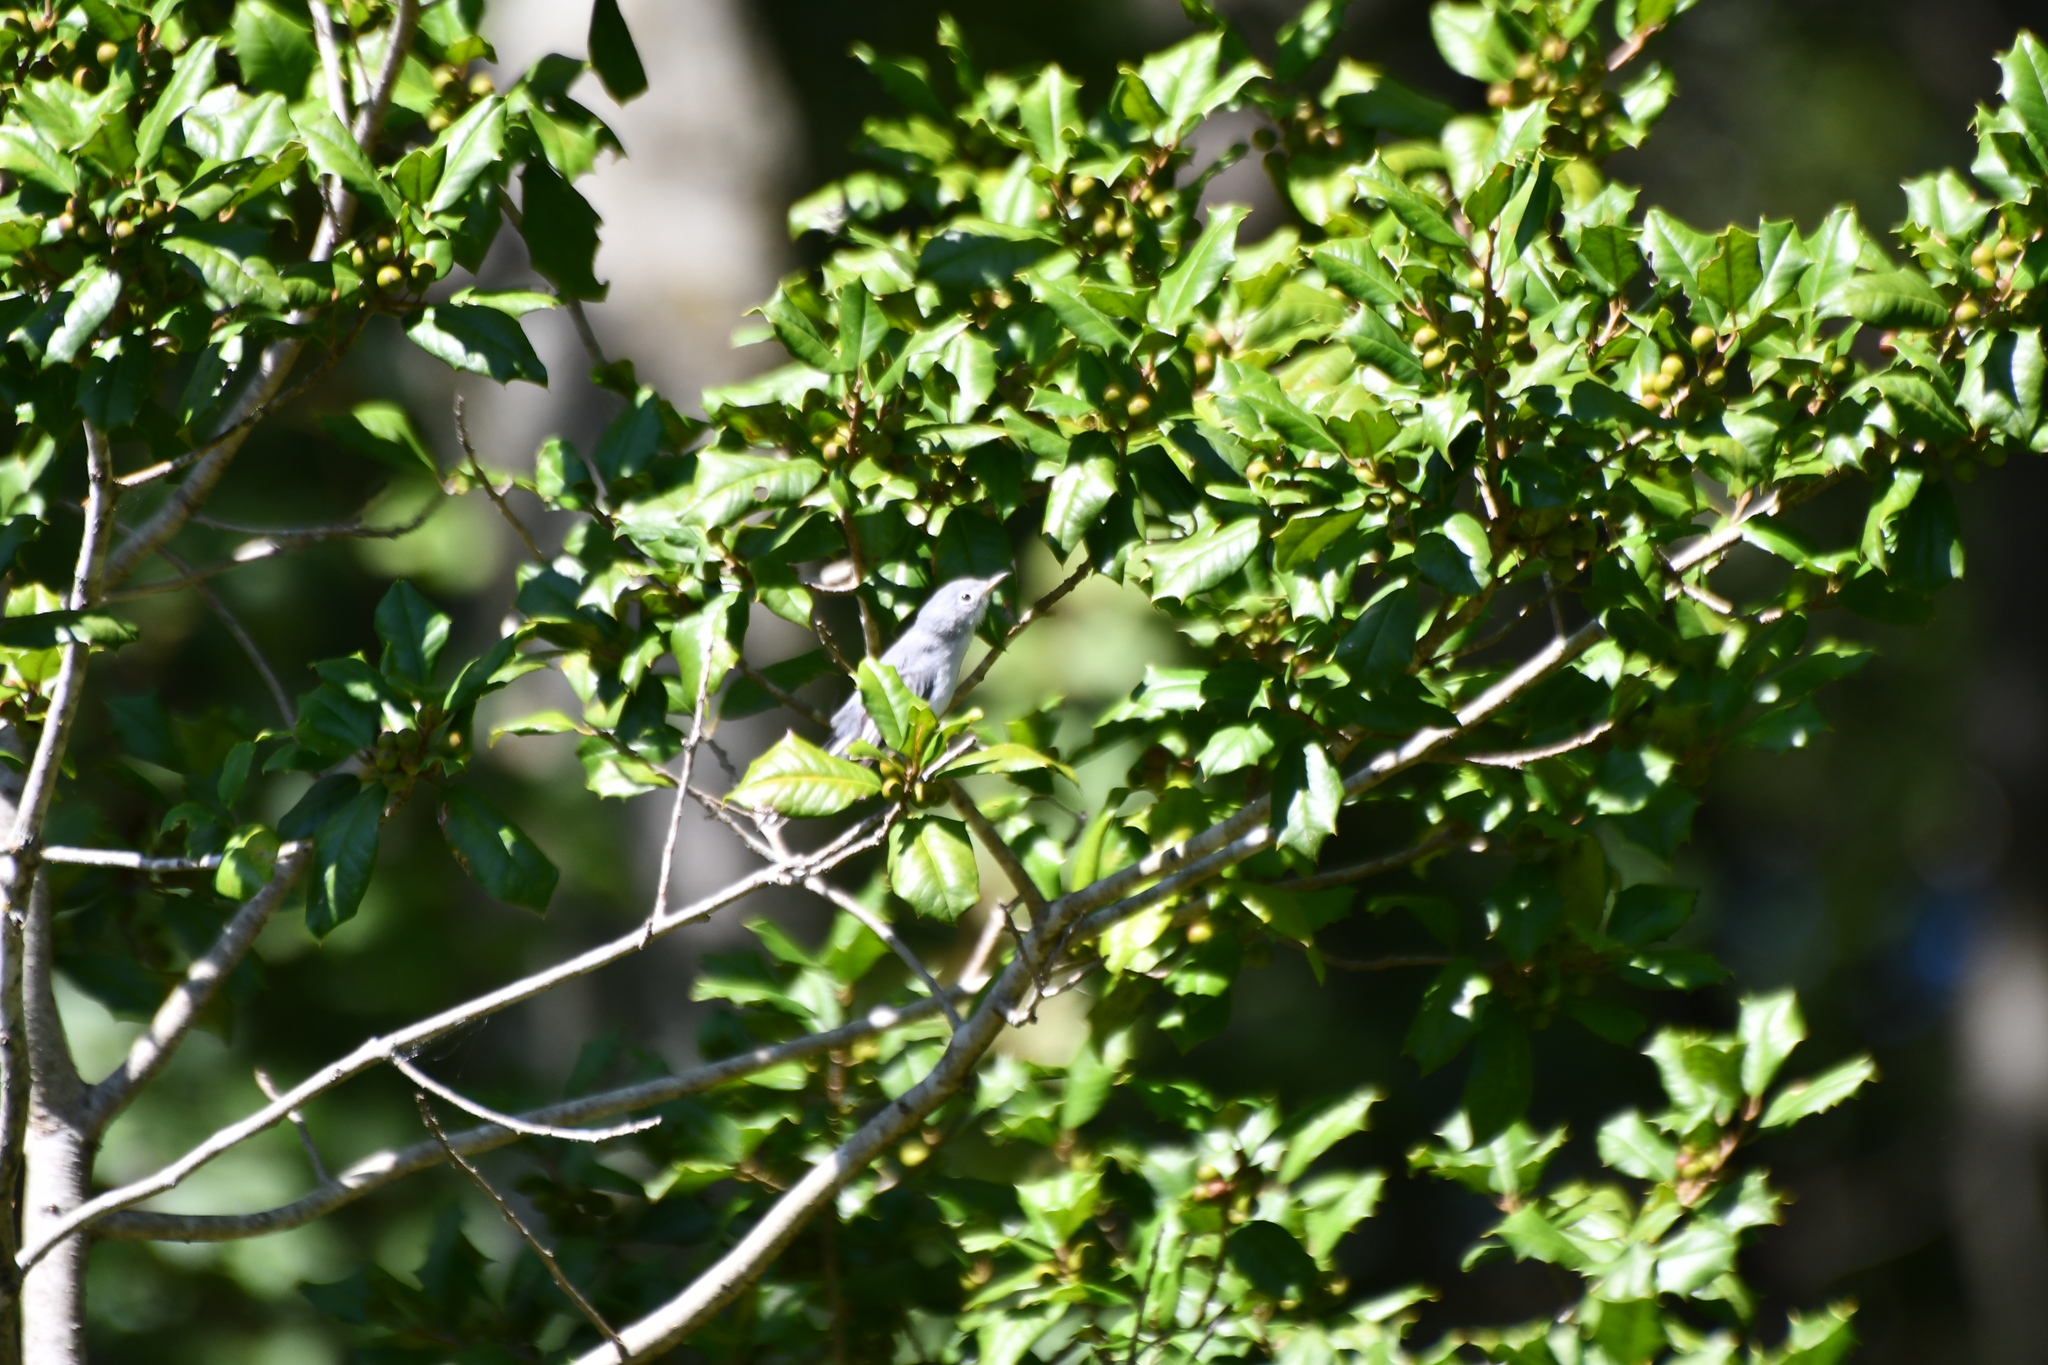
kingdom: Animalia
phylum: Chordata
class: Aves
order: Passeriformes
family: Polioptilidae
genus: Polioptila
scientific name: Polioptila caerulea
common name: Blue-gray gnatcatcher
